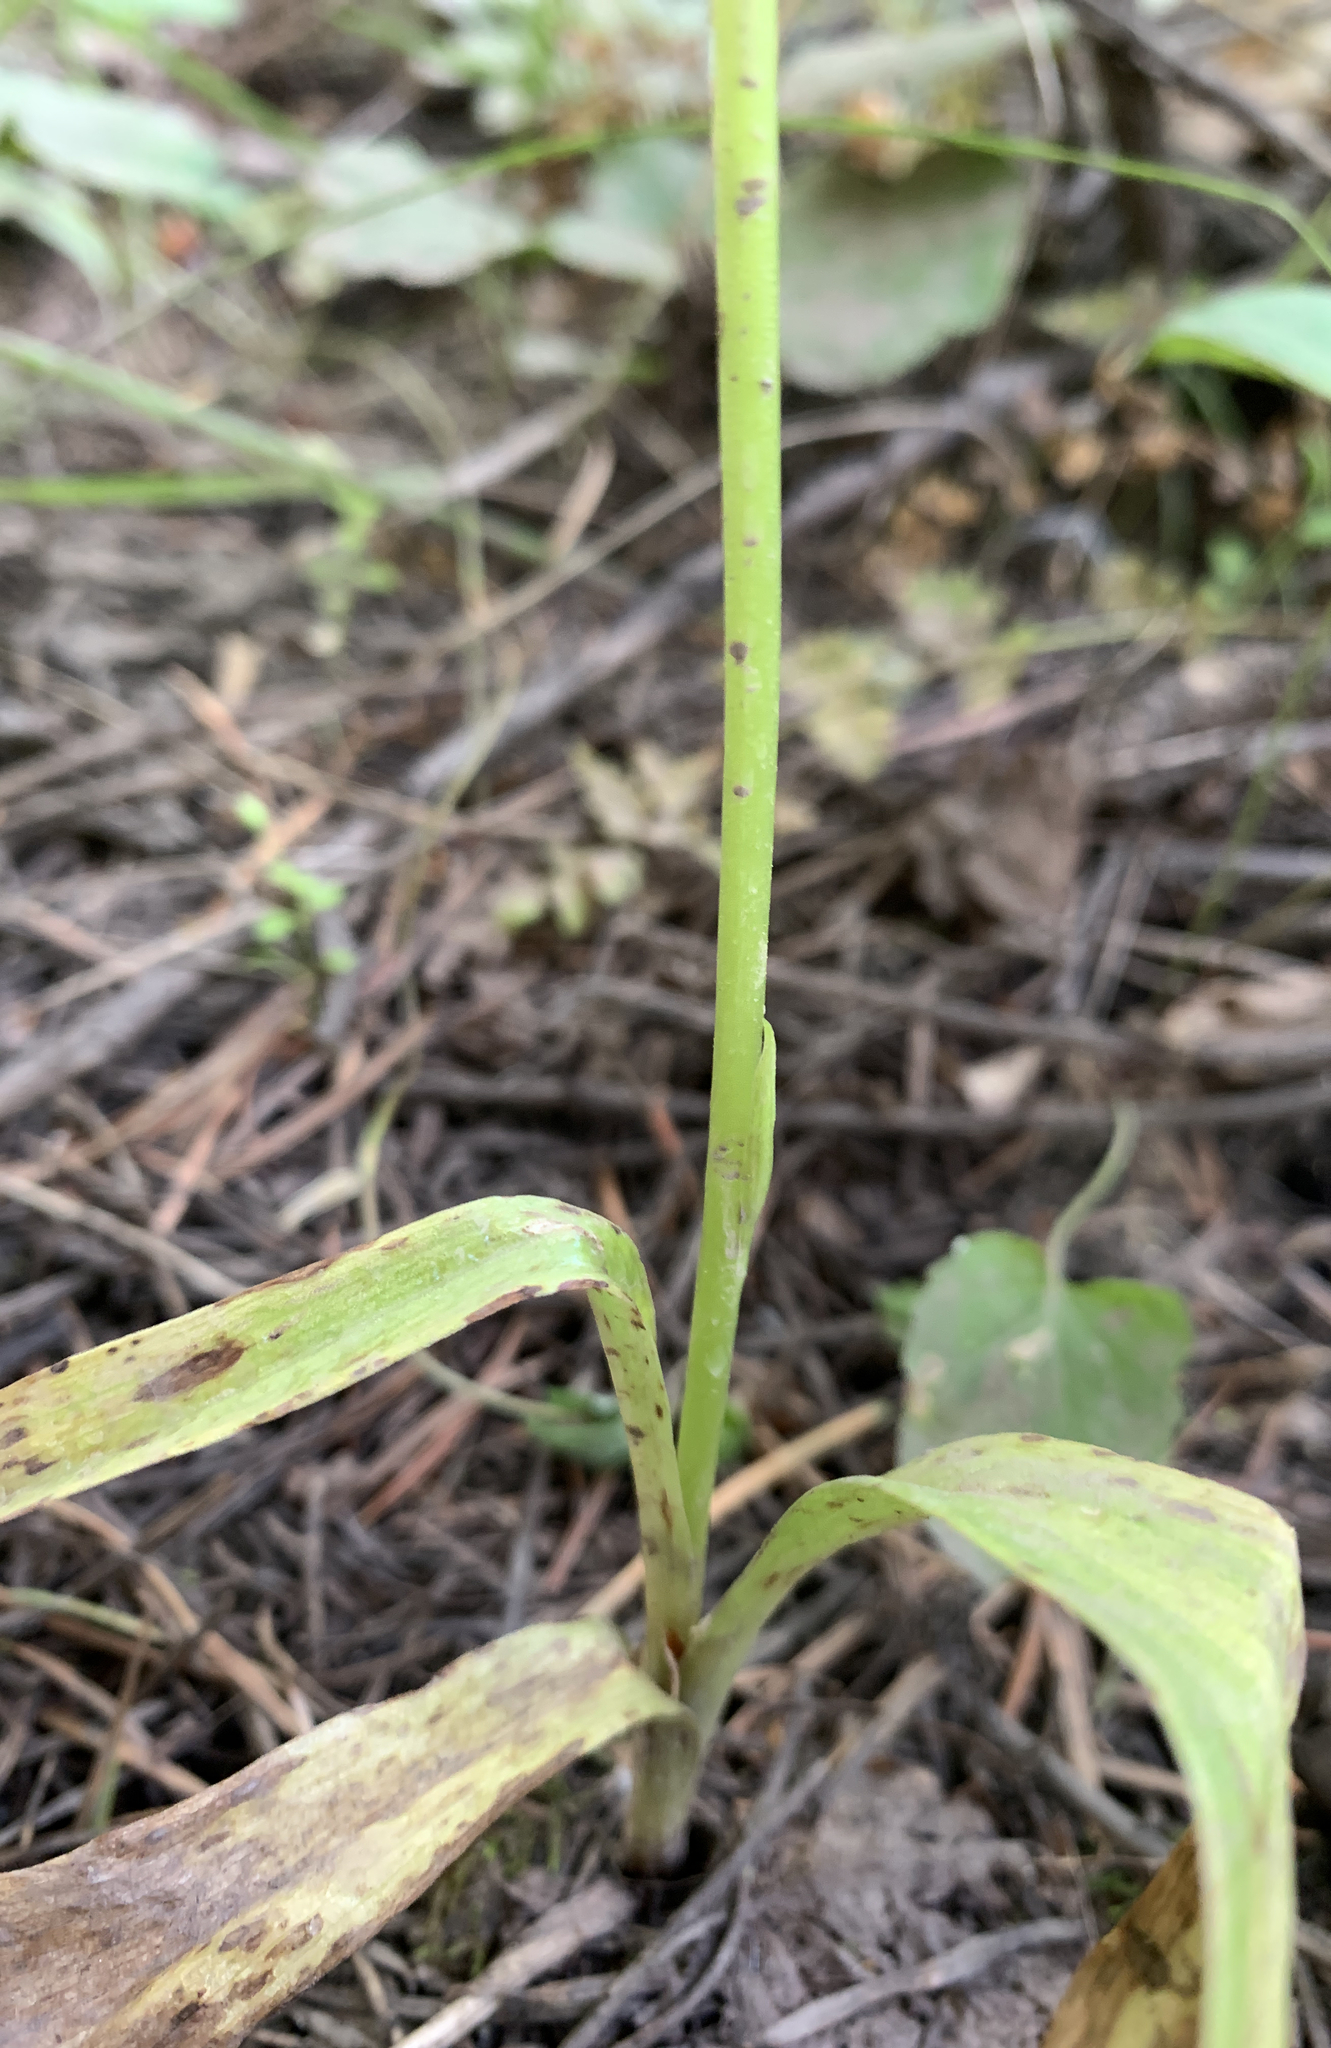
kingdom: Plantae
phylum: Tracheophyta
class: Liliopsida
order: Asparagales
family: Orchidaceae
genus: Platanthera
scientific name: Platanthera unalascensis
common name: Alaska bog orchid
